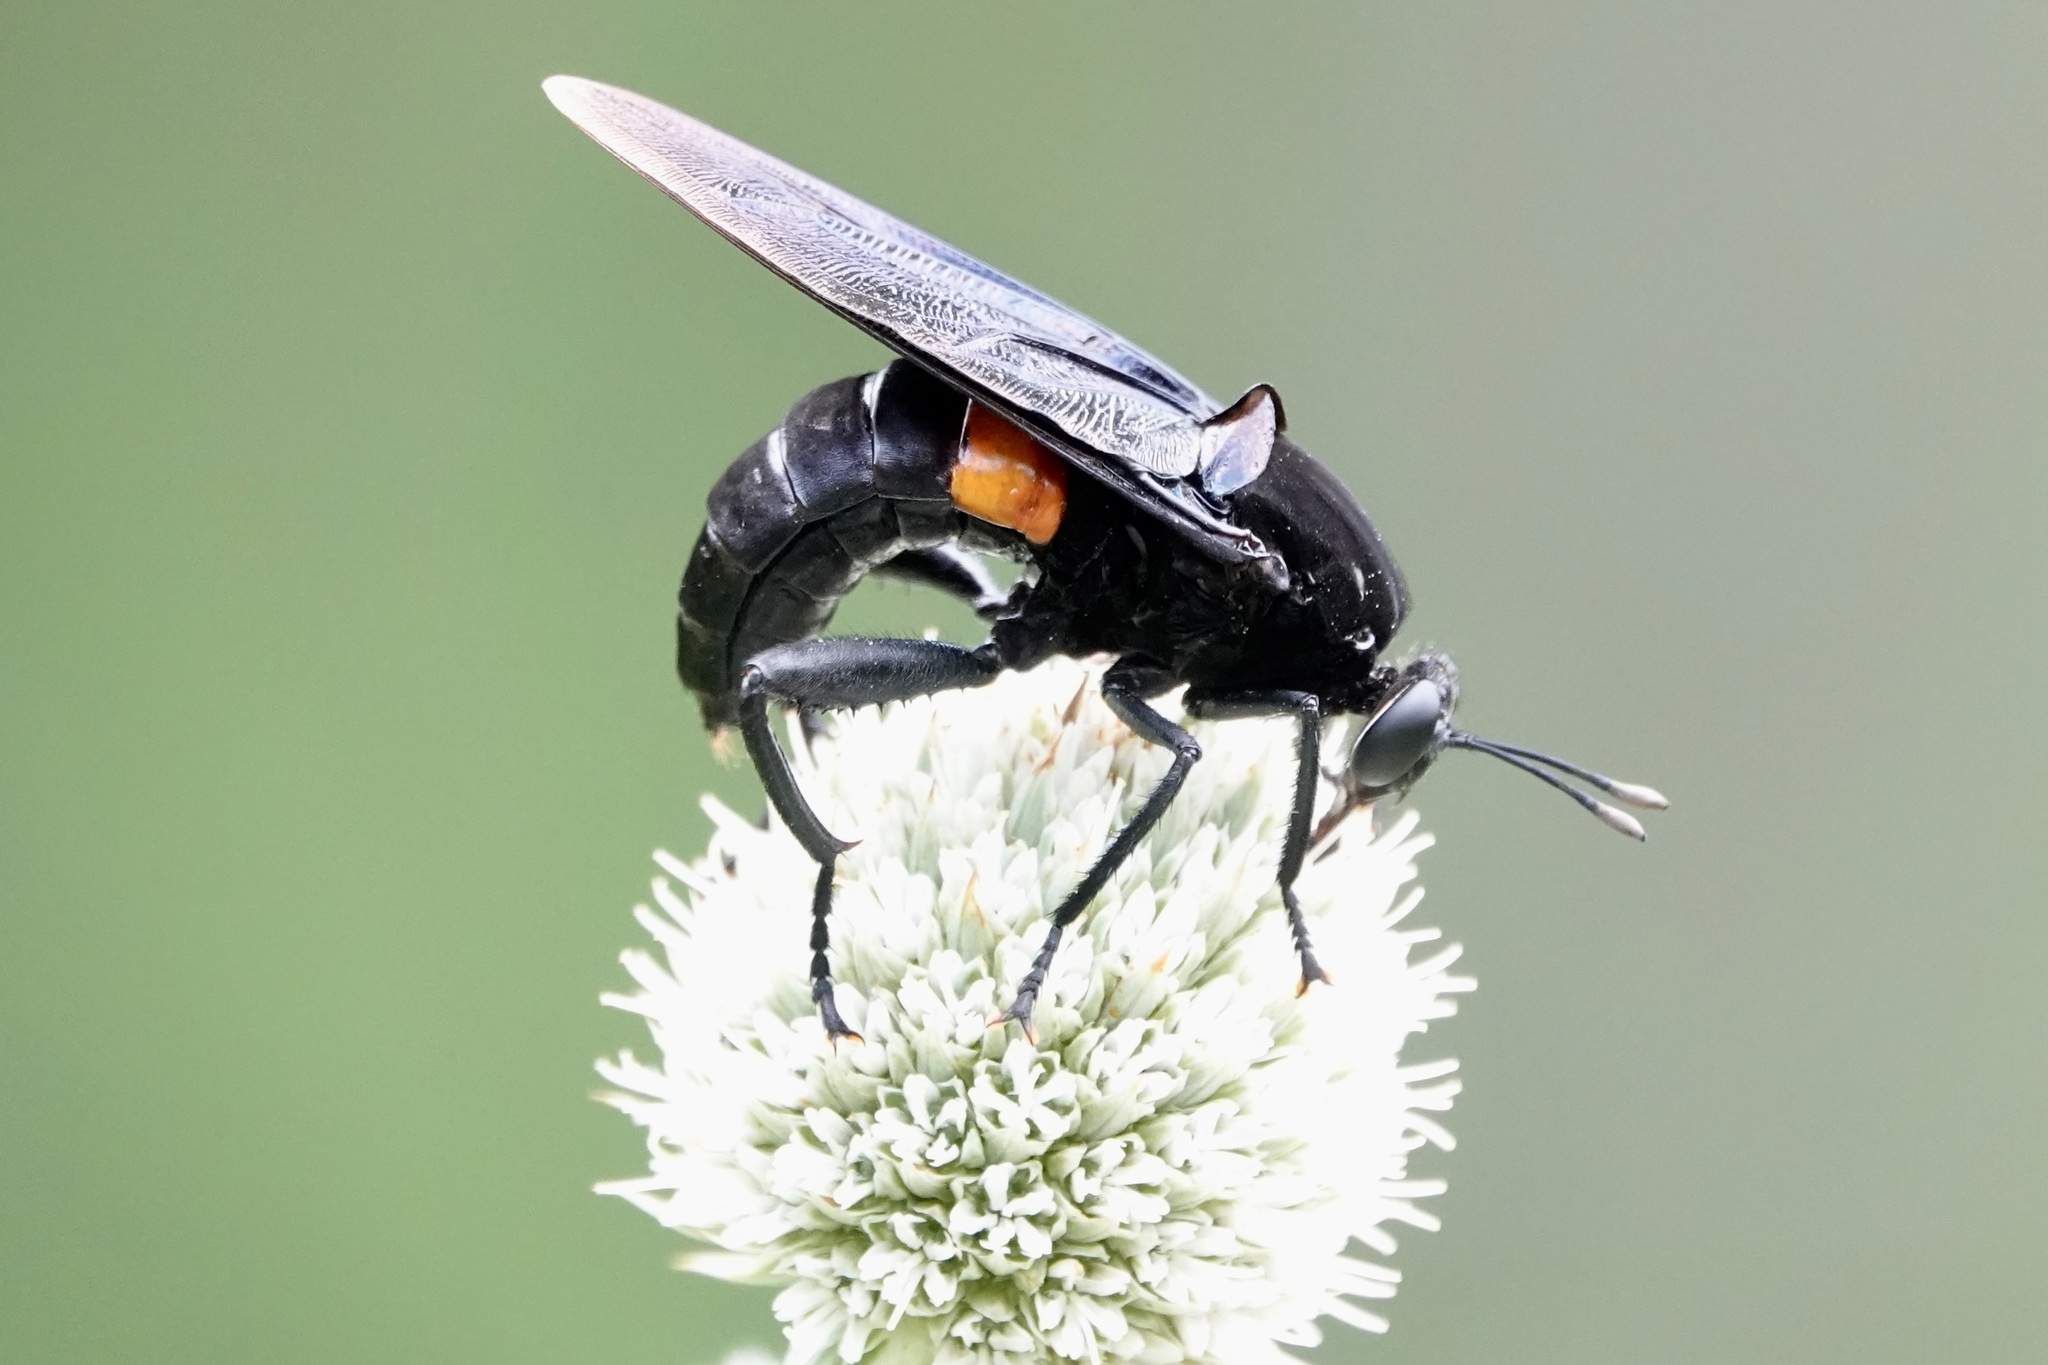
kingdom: Animalia
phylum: Arthropoda
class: Insecta
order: Diptera
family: Mydidae
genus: Mydas
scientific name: Mydas clavatus
